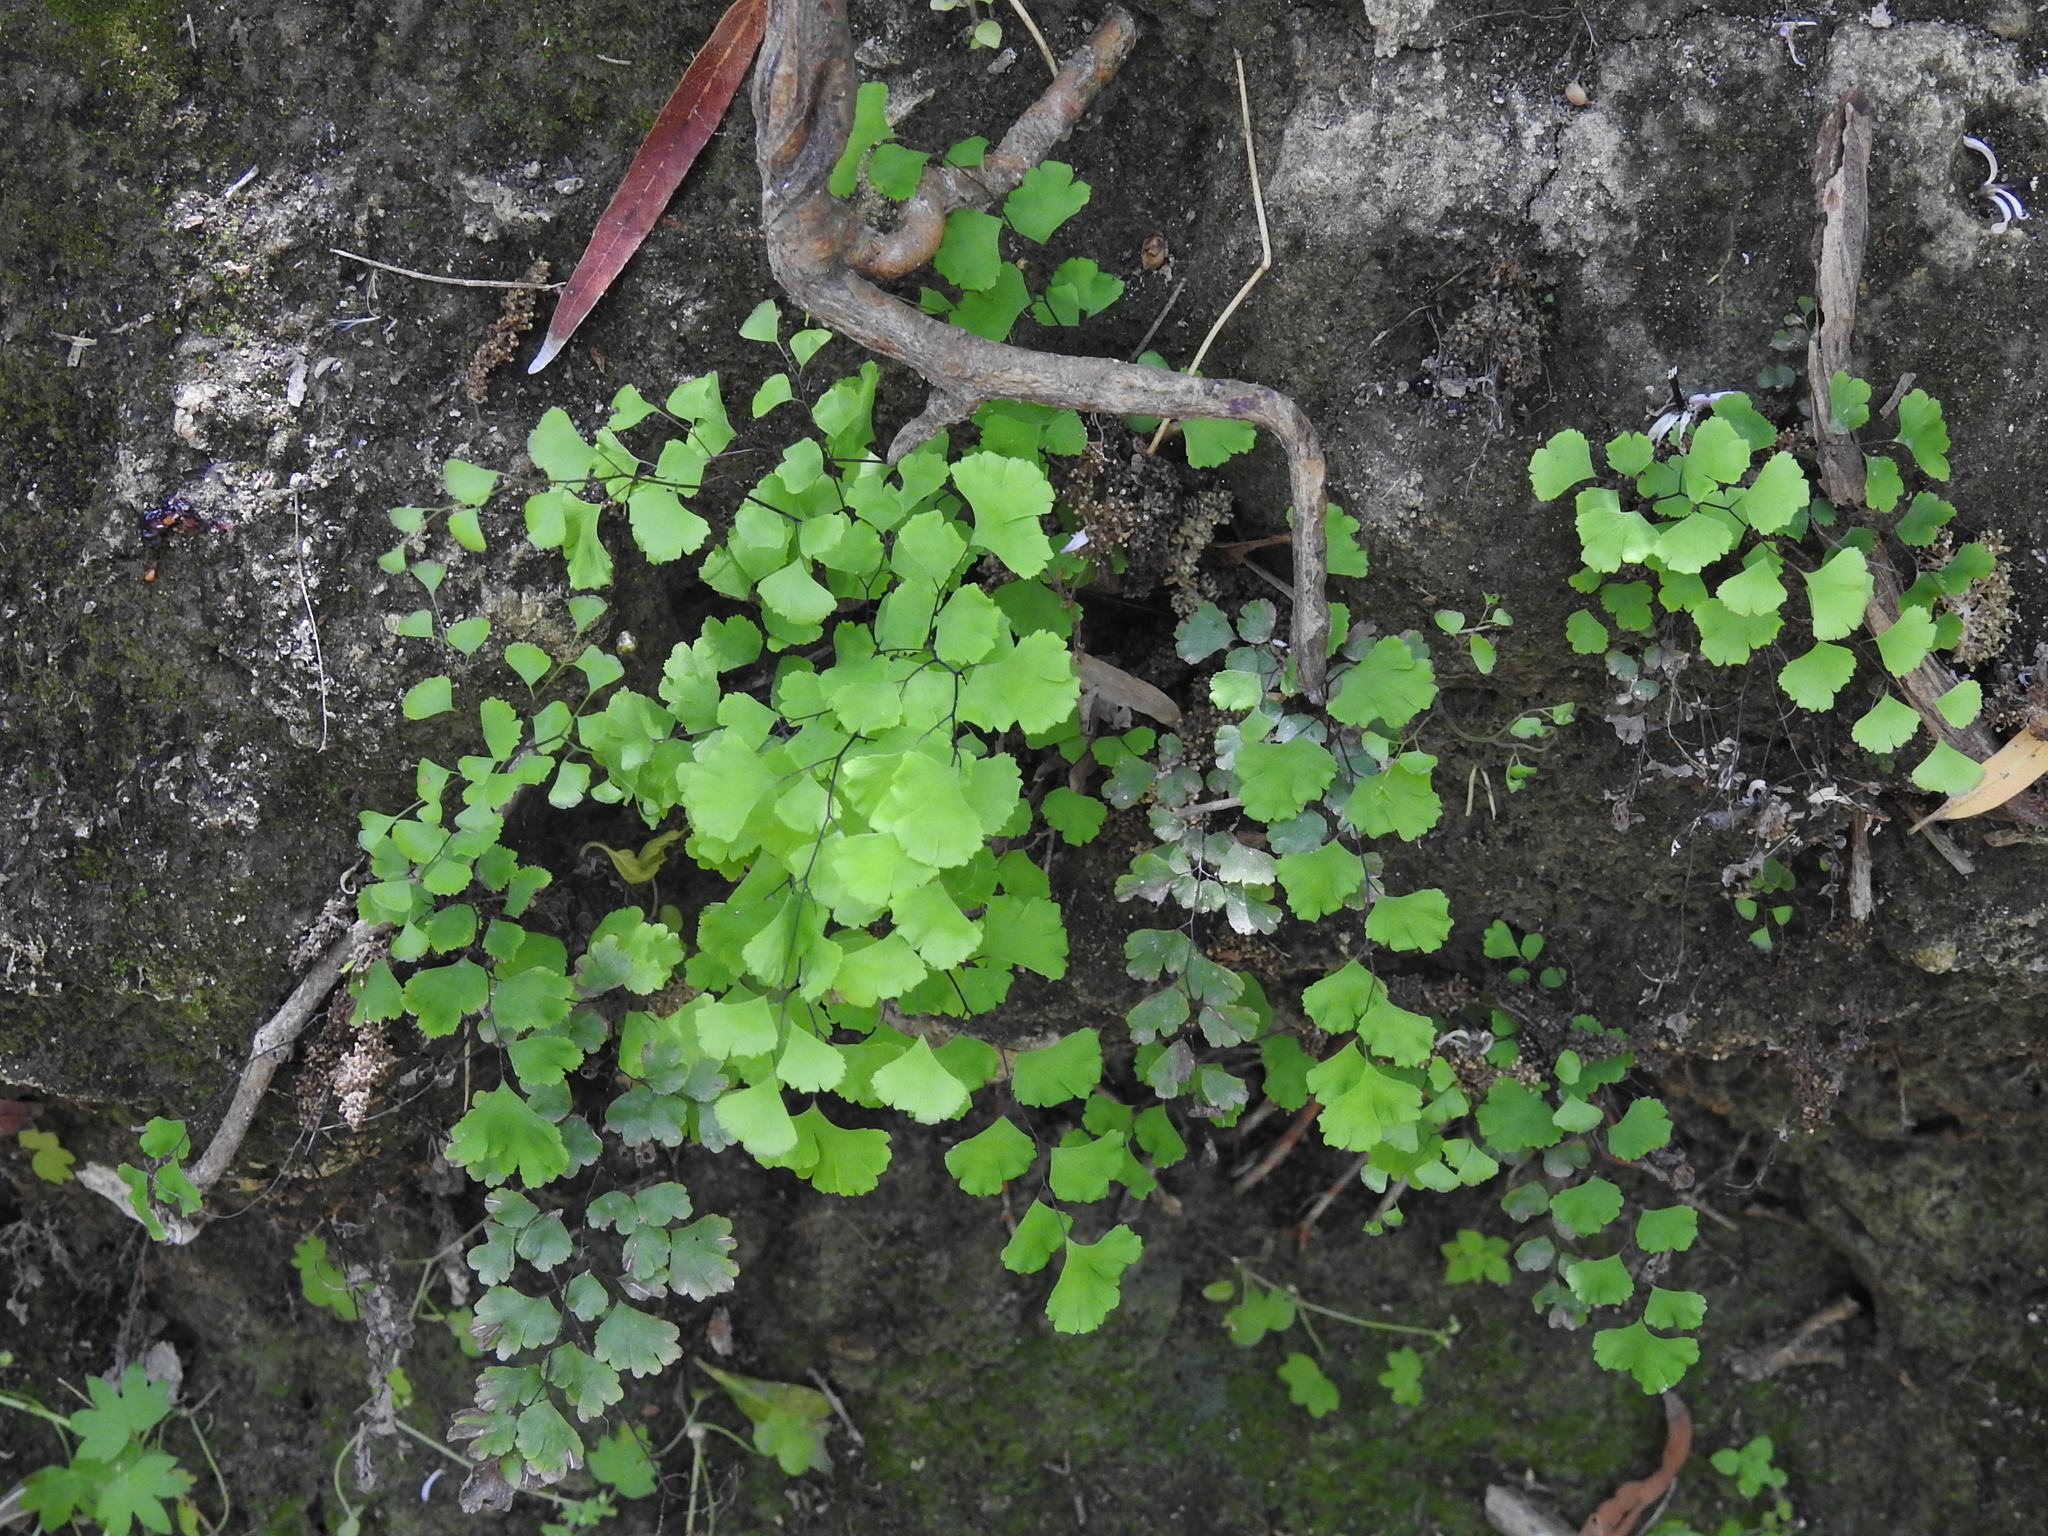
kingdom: Plantae
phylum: Tracheophyta
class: Polypodiopsida
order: Polypodiales
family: Pteridaceae
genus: Adiantum
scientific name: Adiantum capillus-veneris
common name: Maidenhair fern
